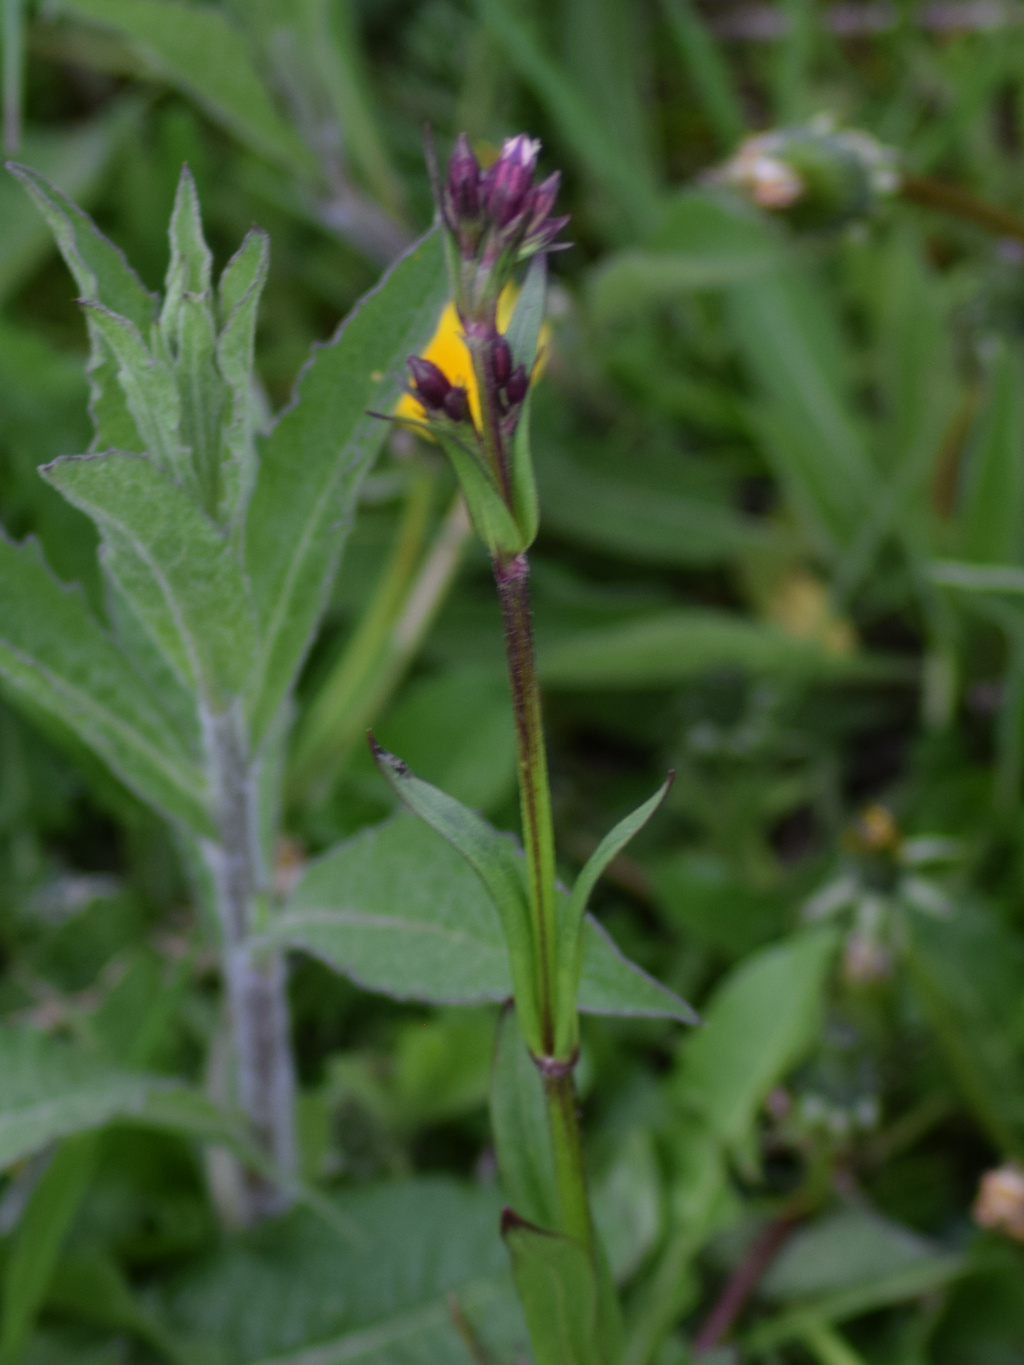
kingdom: Plantae
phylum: Tracheophyta
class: Magnoliopsida
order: Caryophyllales
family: Caryophyllaceae
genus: Silene
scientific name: Silene flos-cuculi
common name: Ragged-robin
